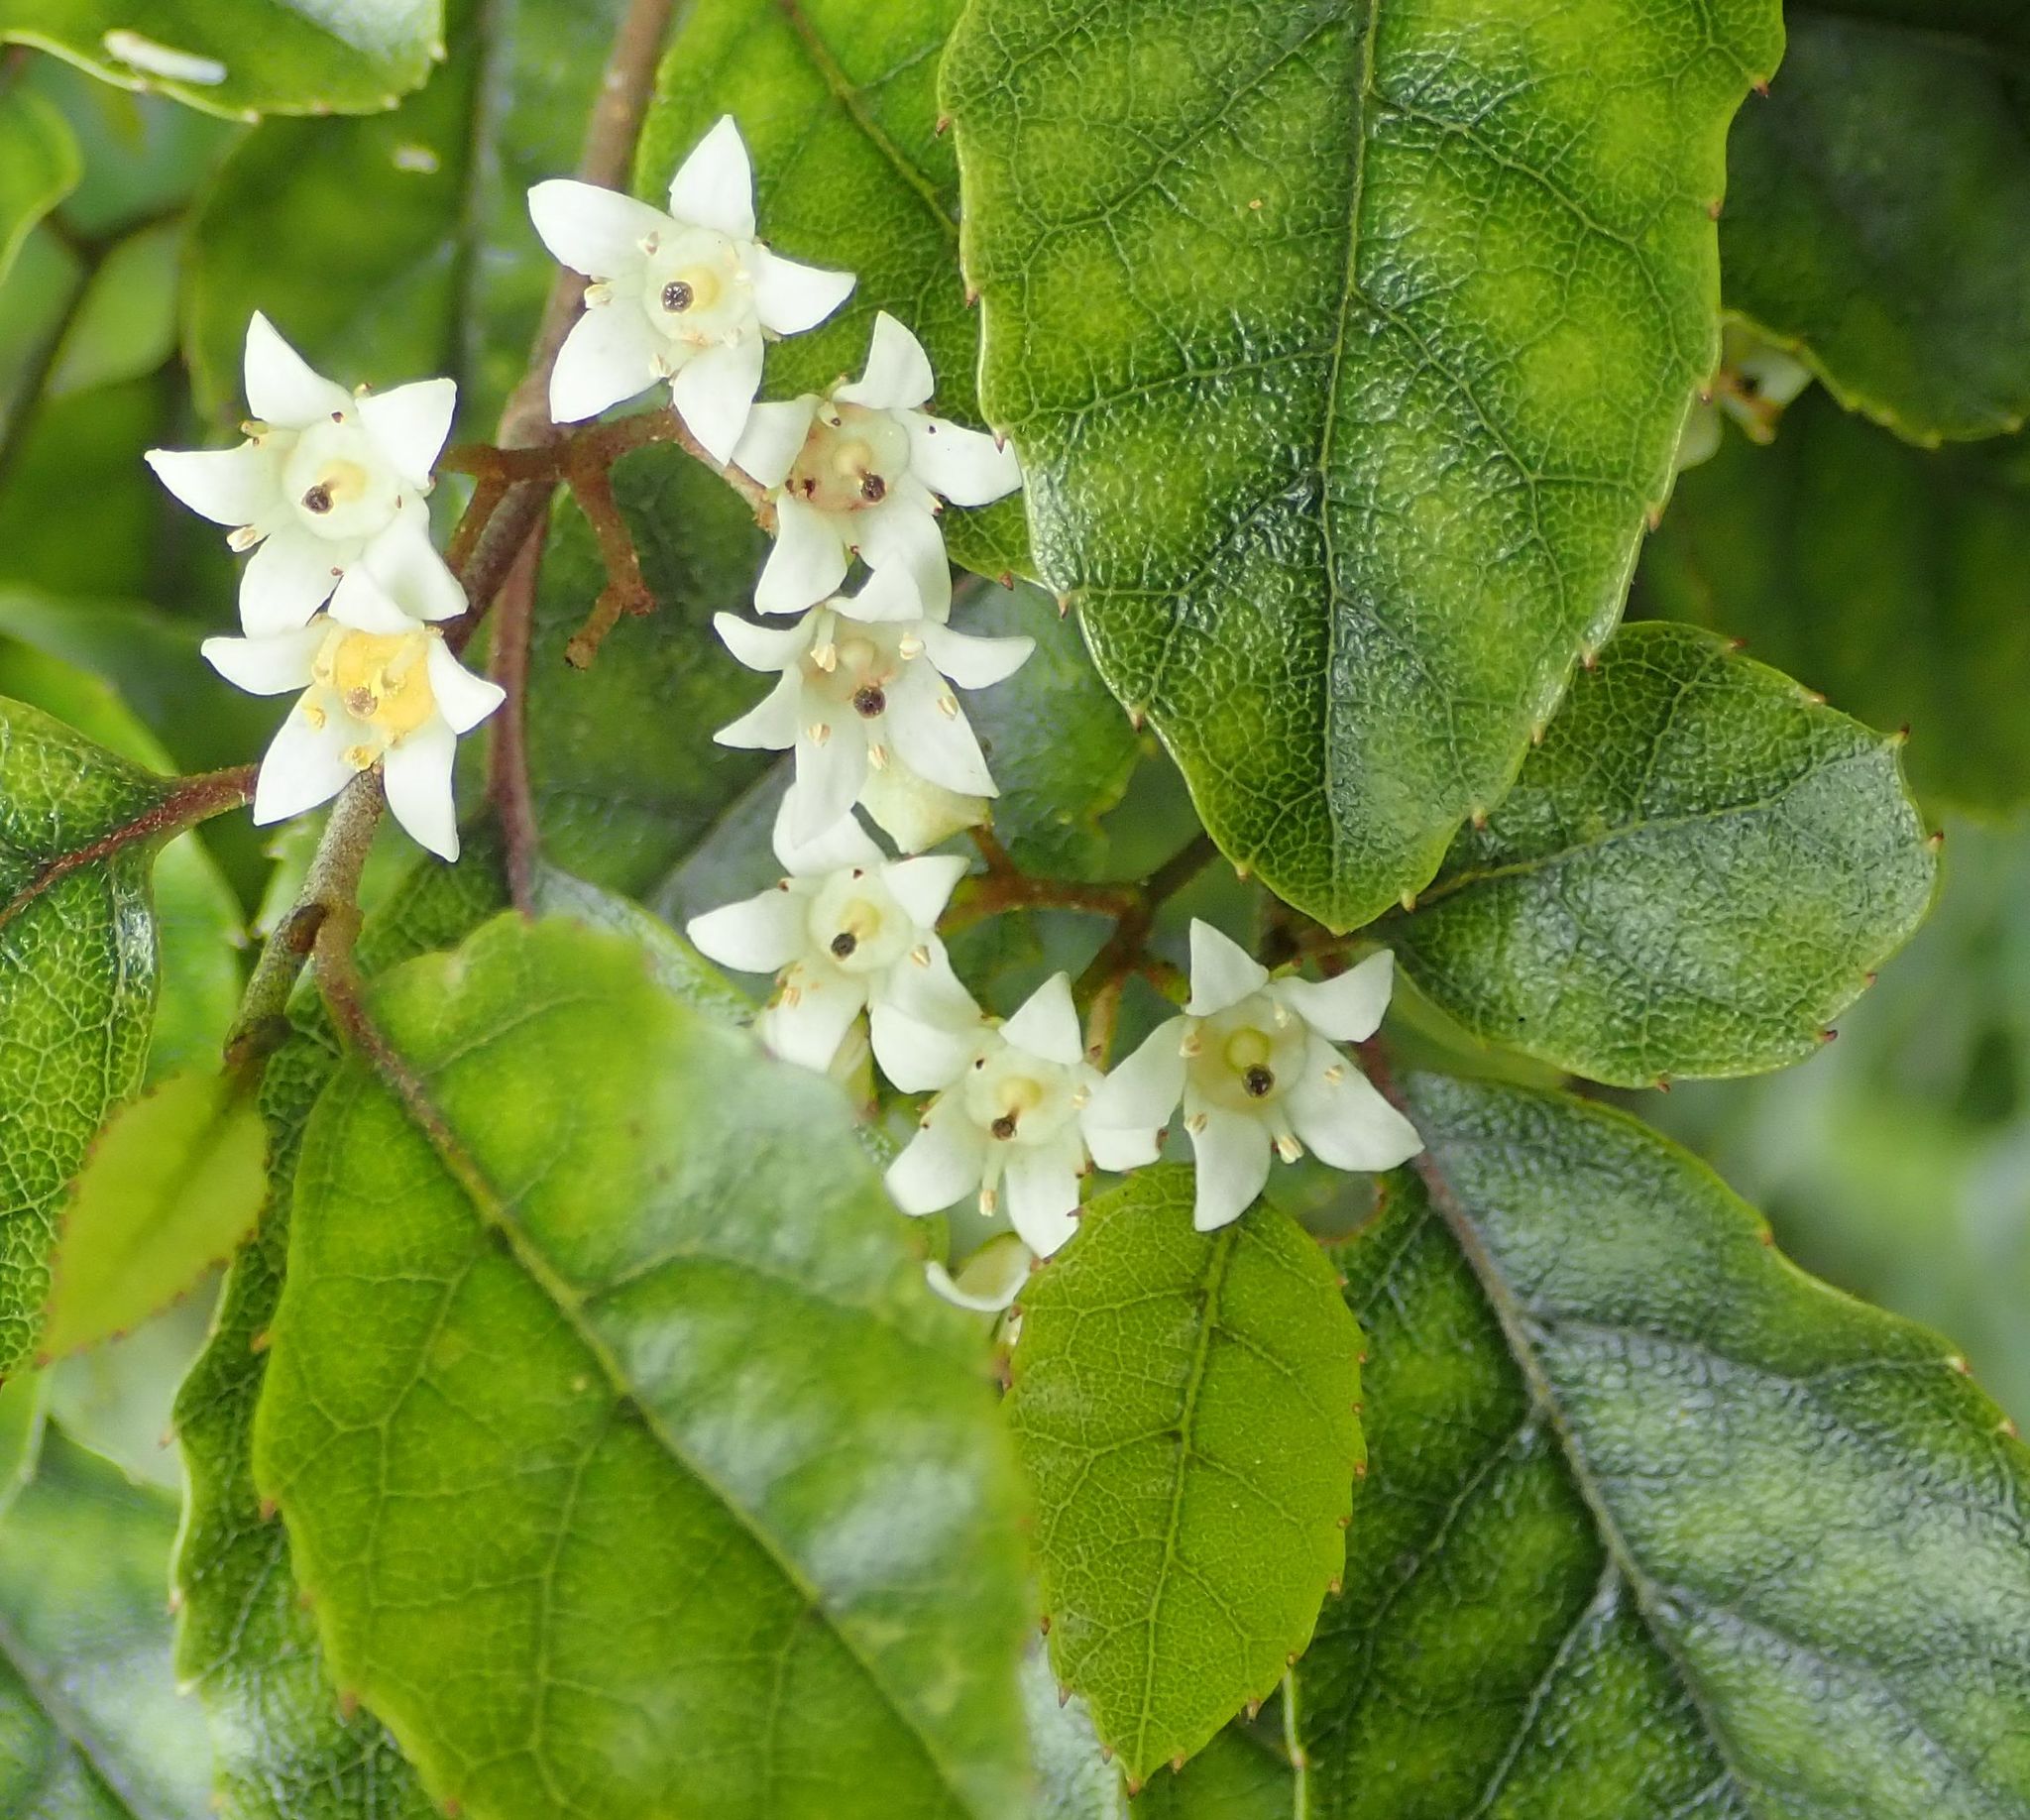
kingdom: Plantae
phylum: Tracheophyta
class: Magnoliopsida
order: Asterales
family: Rousseaceae
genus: Carpodetus
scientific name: Carpodetus serratus
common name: White mapau
